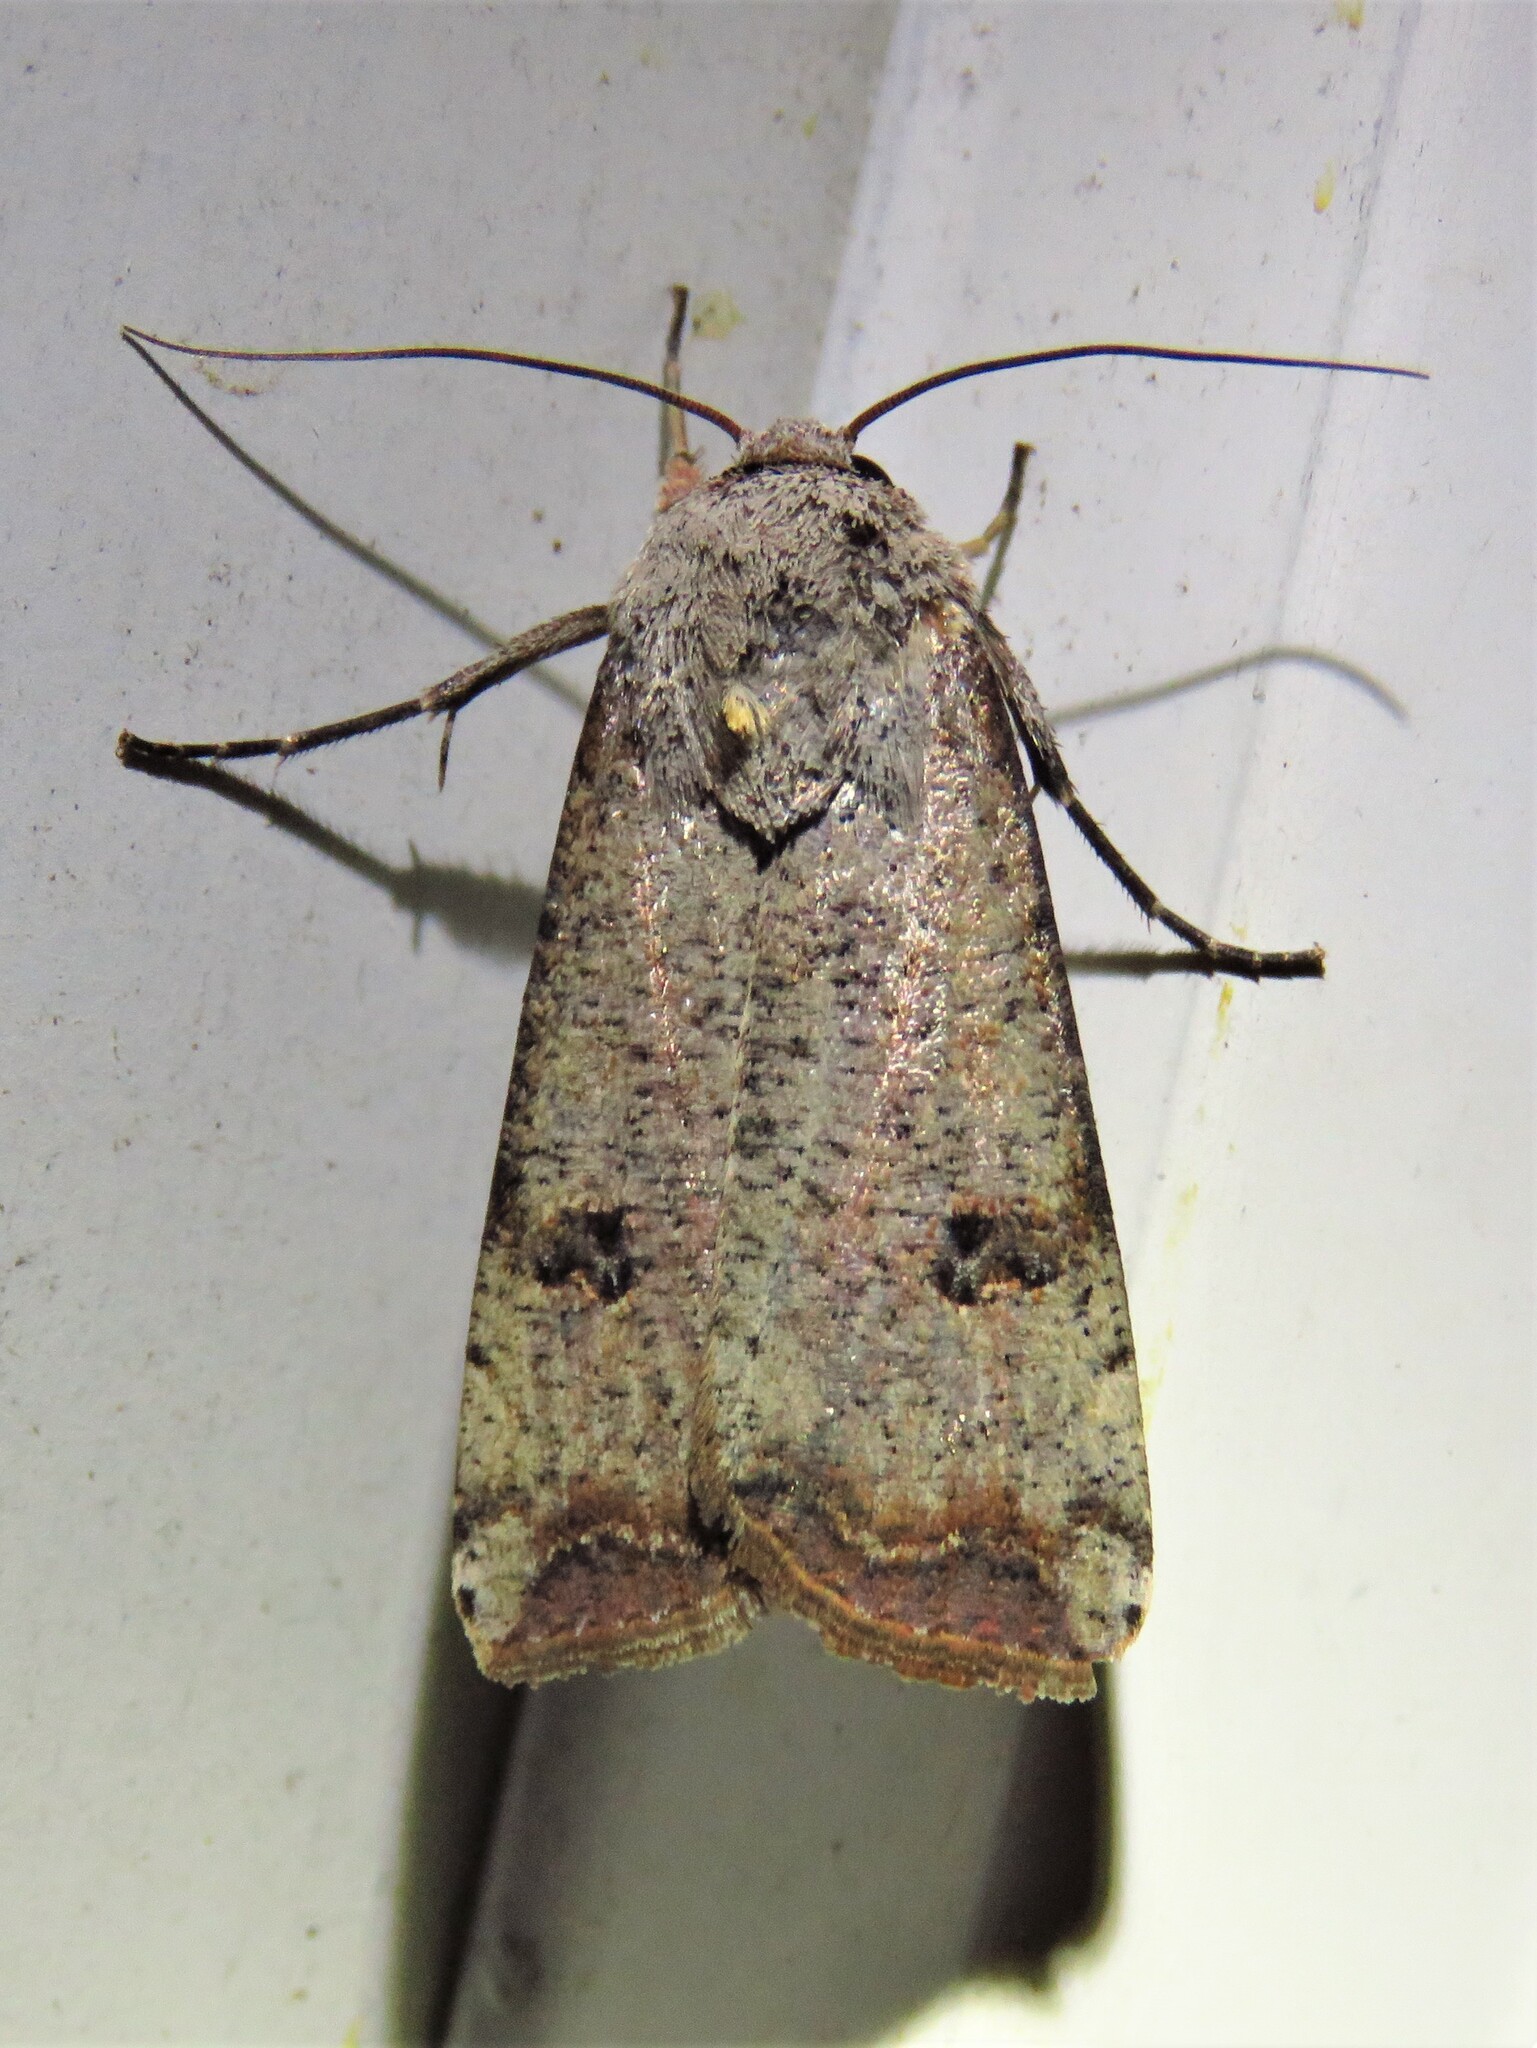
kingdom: Animalia
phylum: Arthropoda
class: Insecta
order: Lepidoptera
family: Noctuidae
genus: Anicla
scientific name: Anicla infecta
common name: Green cutworm
